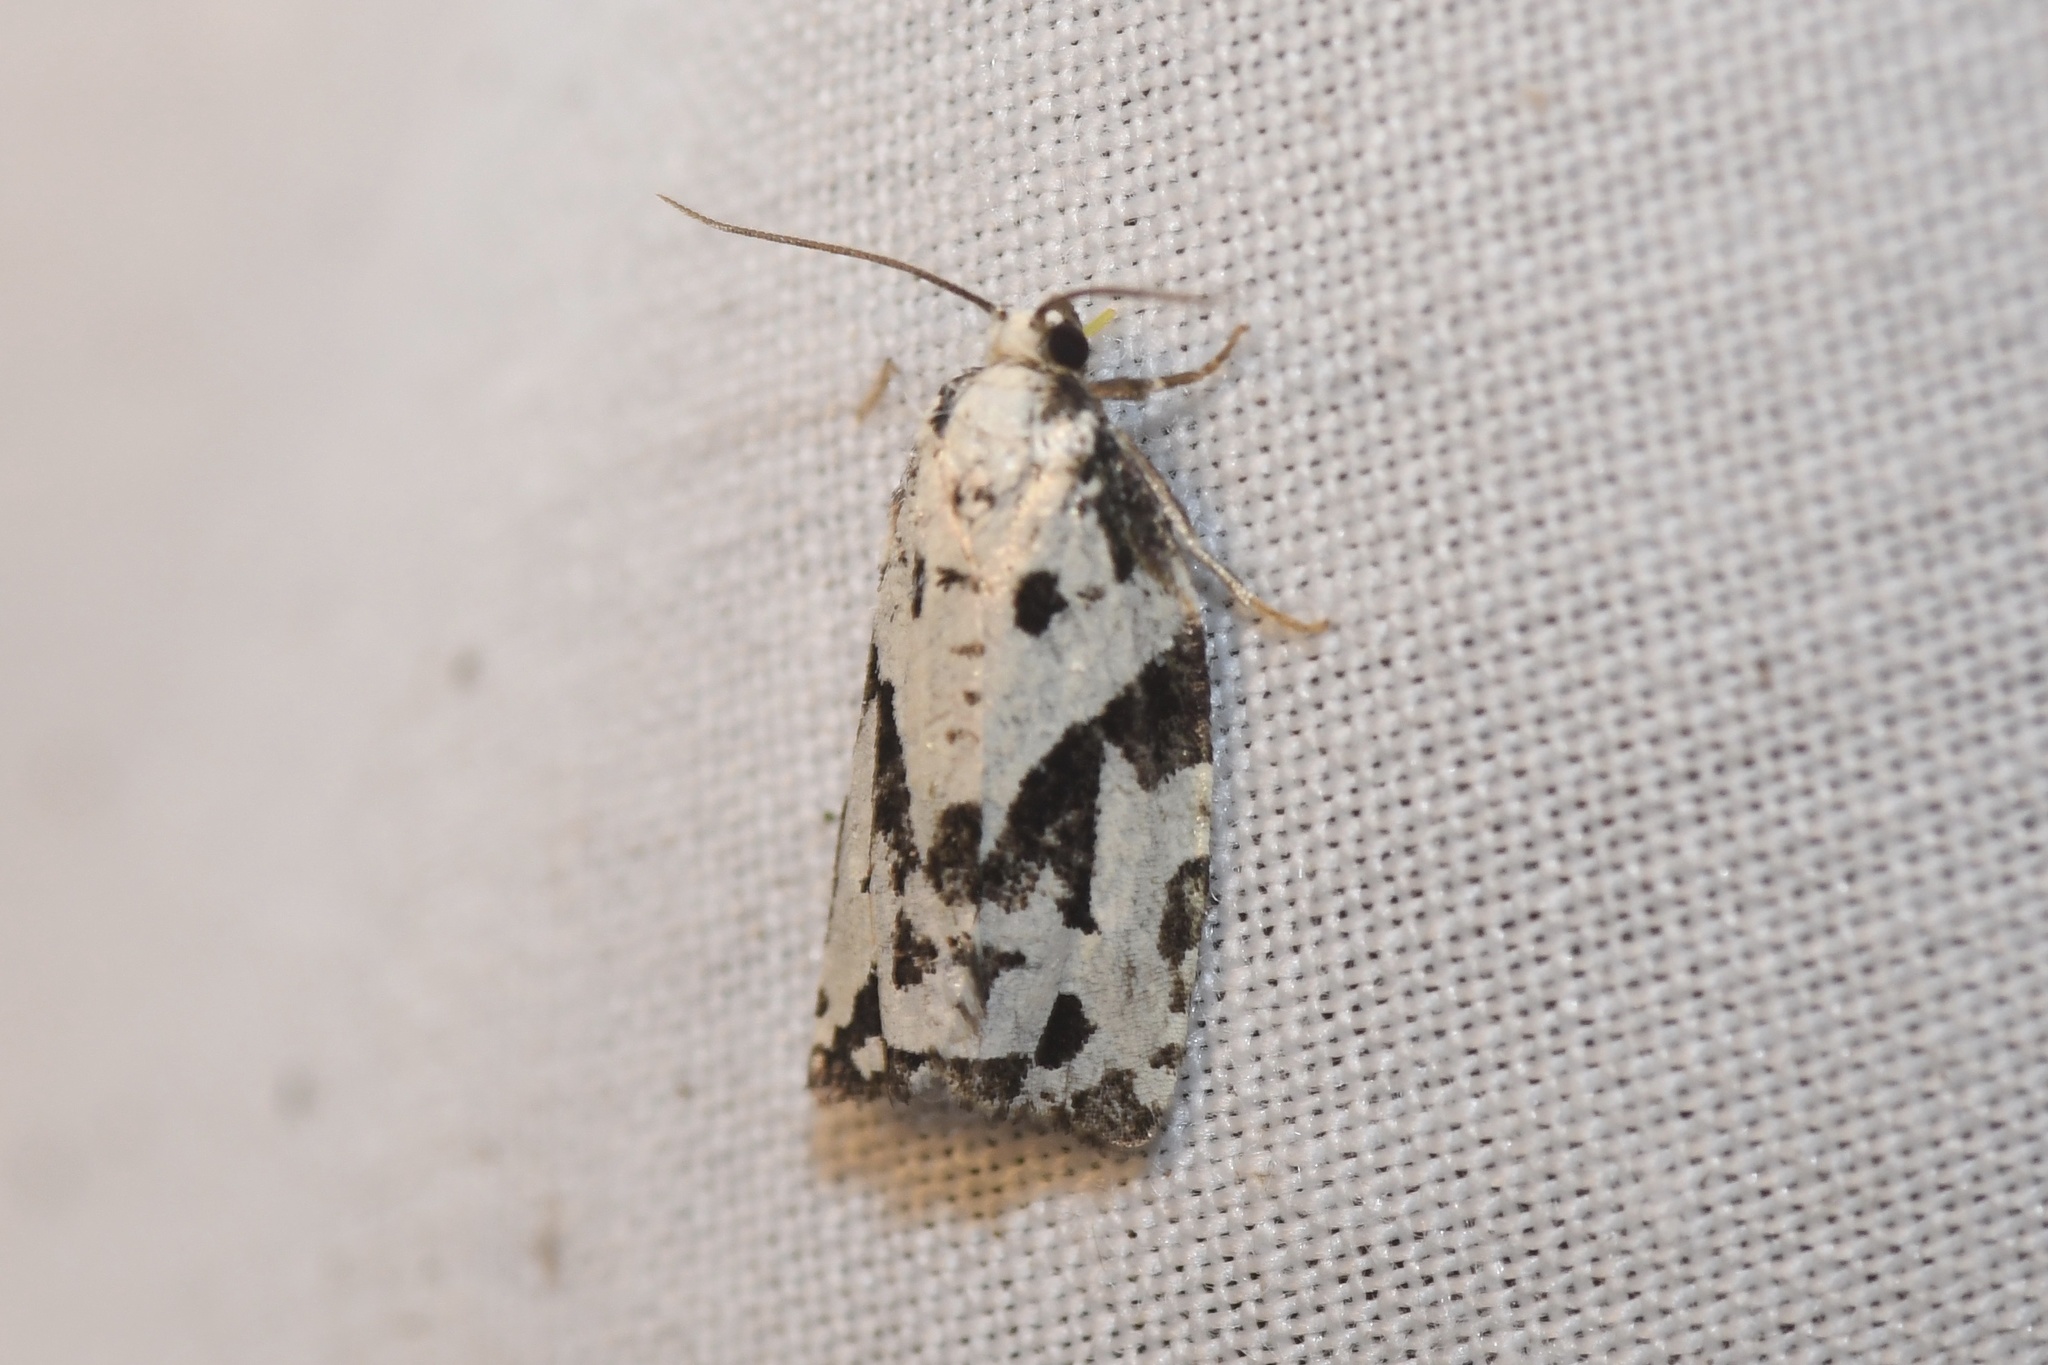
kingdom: Animalia
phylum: Arthropoda
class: Insecta
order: Lepidoptera
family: Tortricidae
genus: Archips
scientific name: Archips dissitana
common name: Boldly-marked archips moth
